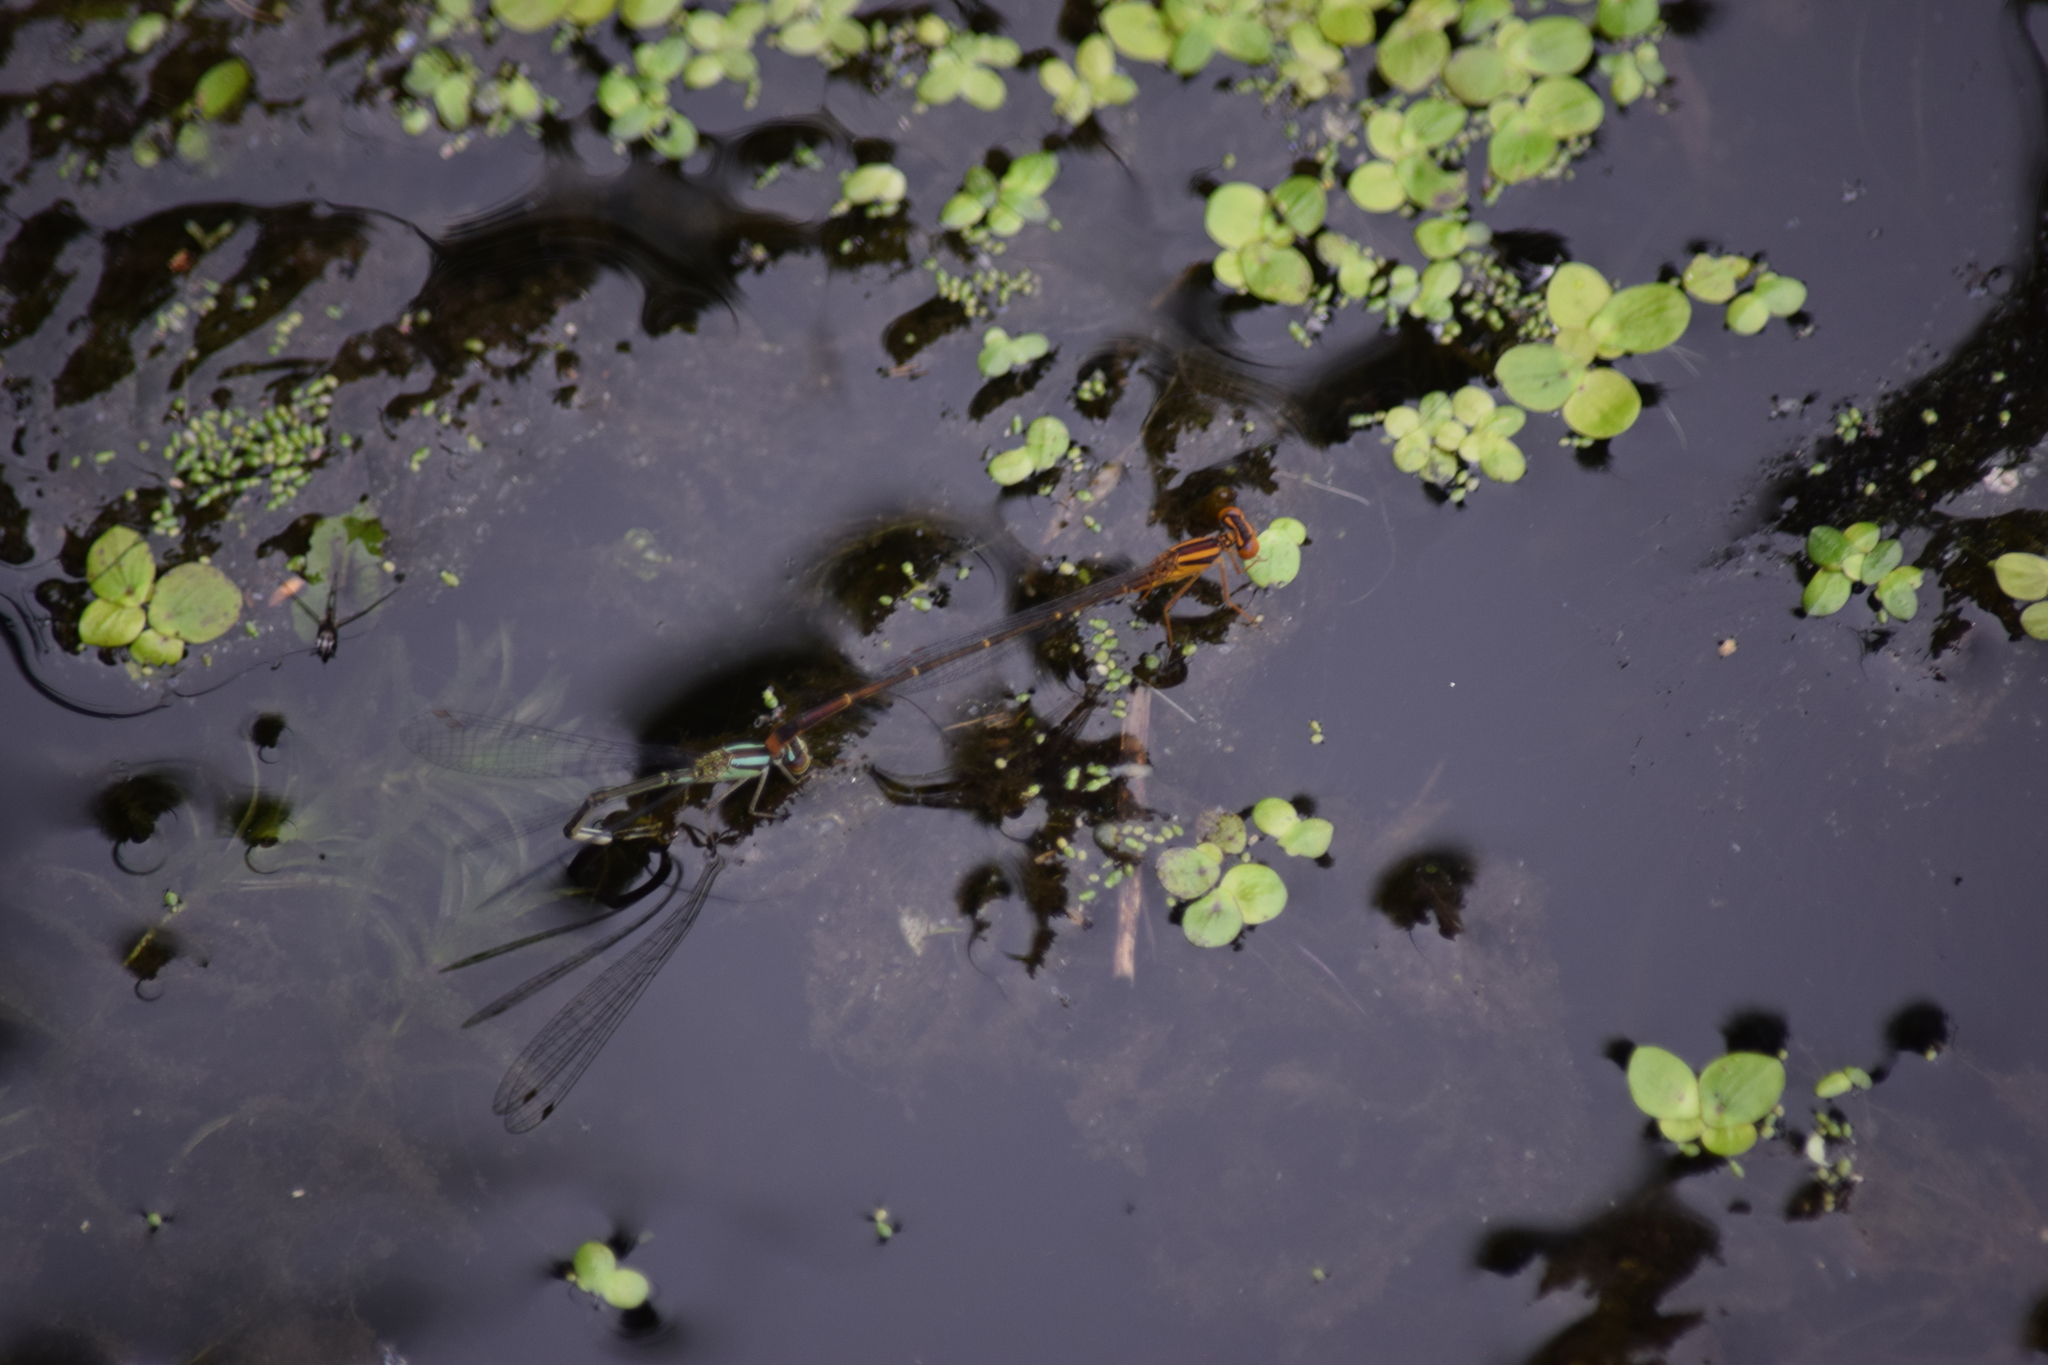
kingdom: Animalia
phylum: Arthropoda
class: Insecta
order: Odonata
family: Coenagrionidae
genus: Enallagma
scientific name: Enallagma signatum
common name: Orange bluet
